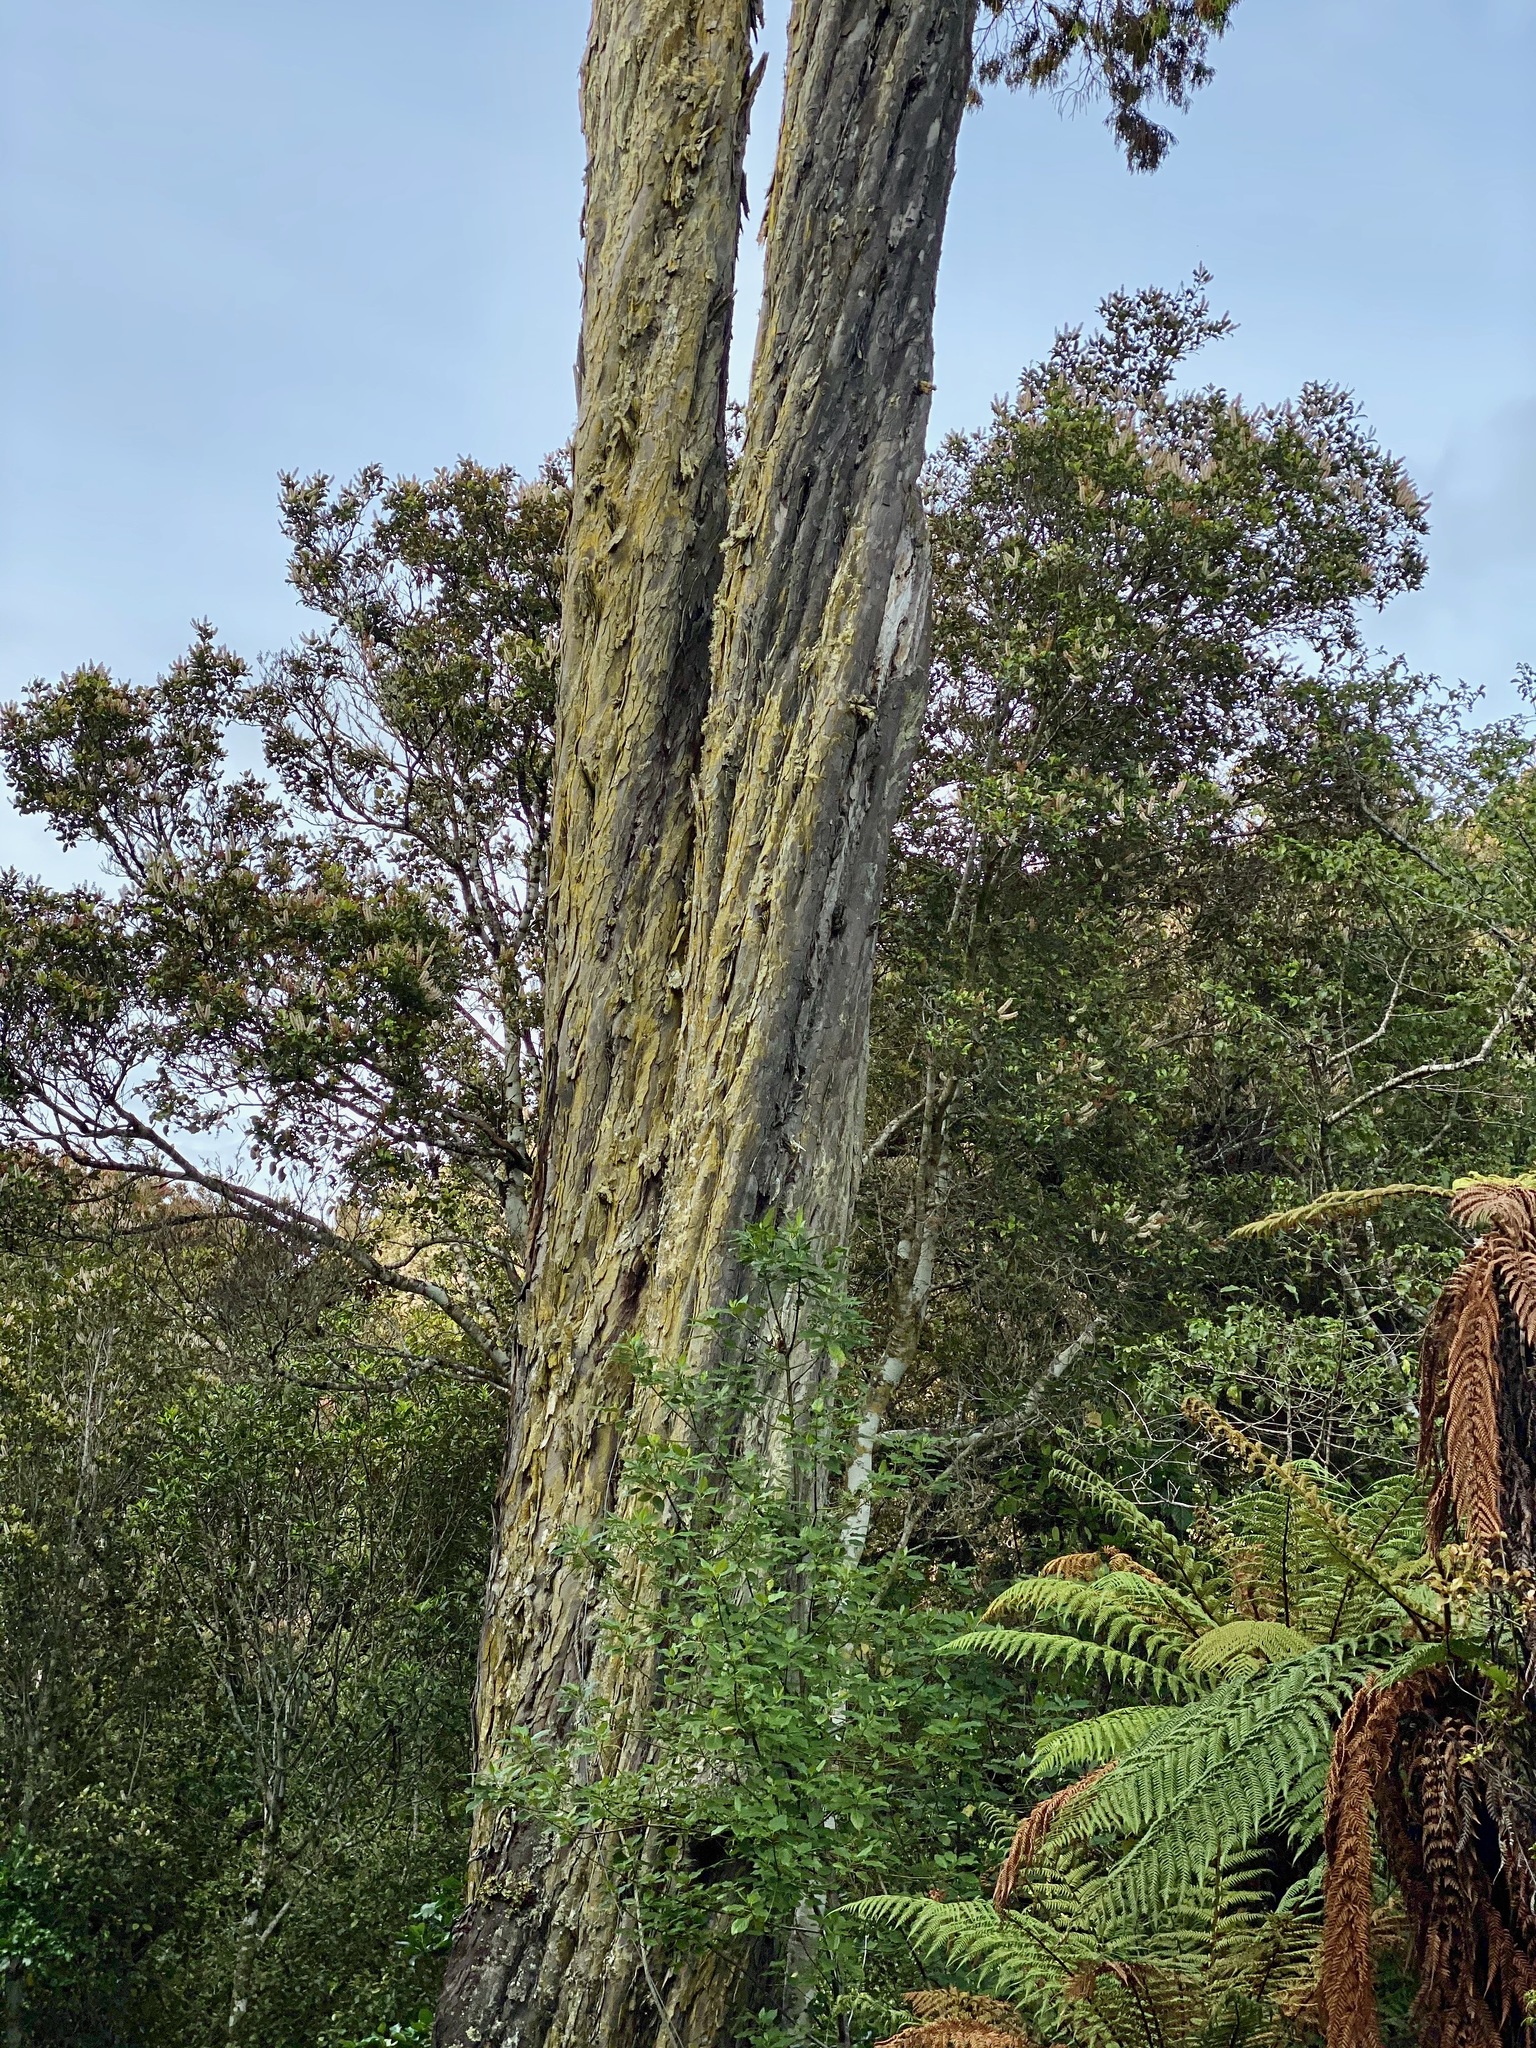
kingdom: Plantae
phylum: Tracheophyta
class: Pinopsida
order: Pinales
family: Podocarpaceae
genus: Dacrydium
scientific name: Dacrydium cupressinum
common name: Red pine
